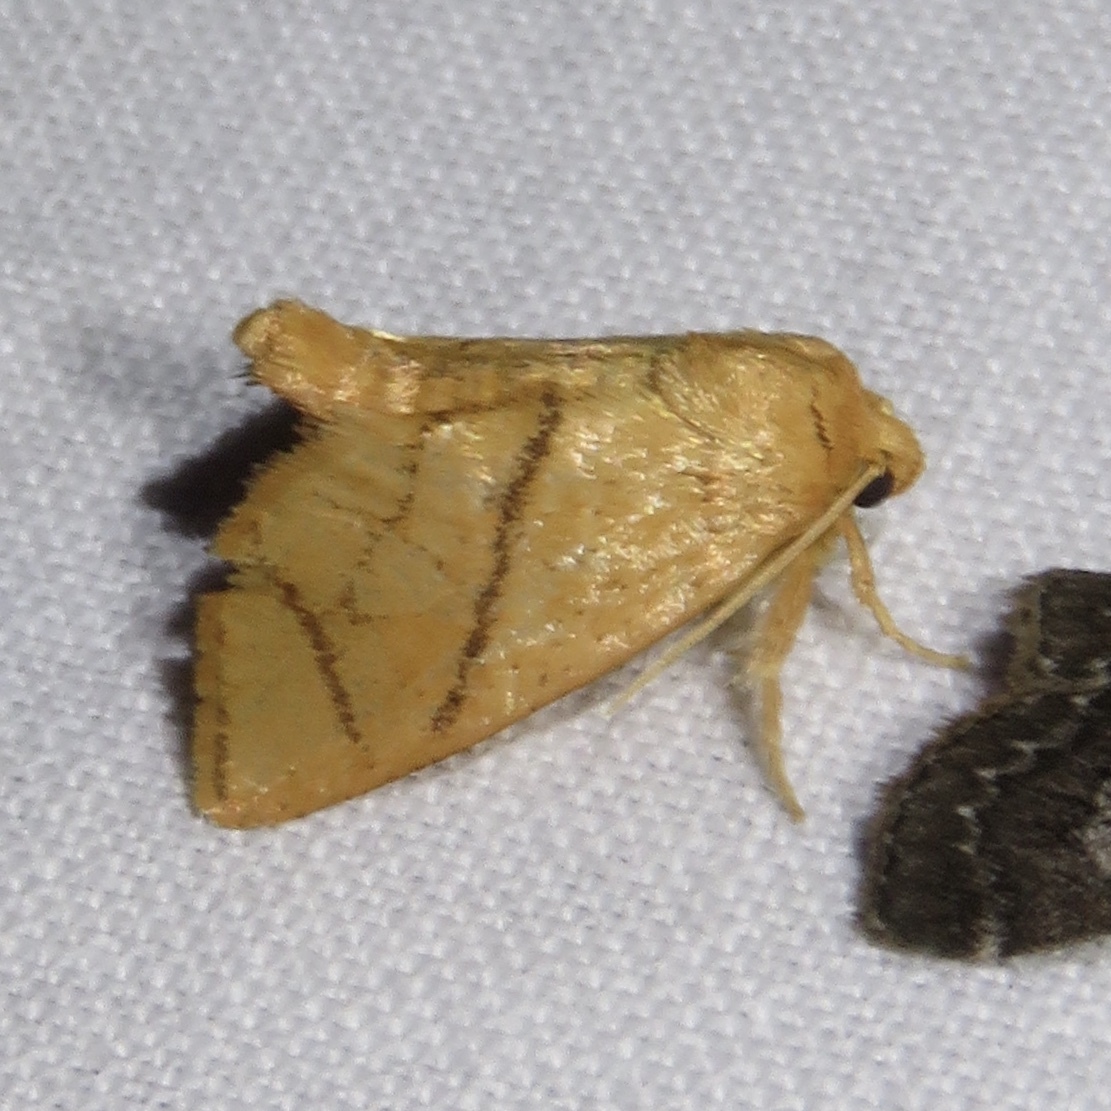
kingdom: Animalia
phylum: Arthropoda
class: Insecta
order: Lepidoptera
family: Limacodidae
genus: Apoda
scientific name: Apoda y-inversa
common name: Yellow-collared slug moth
